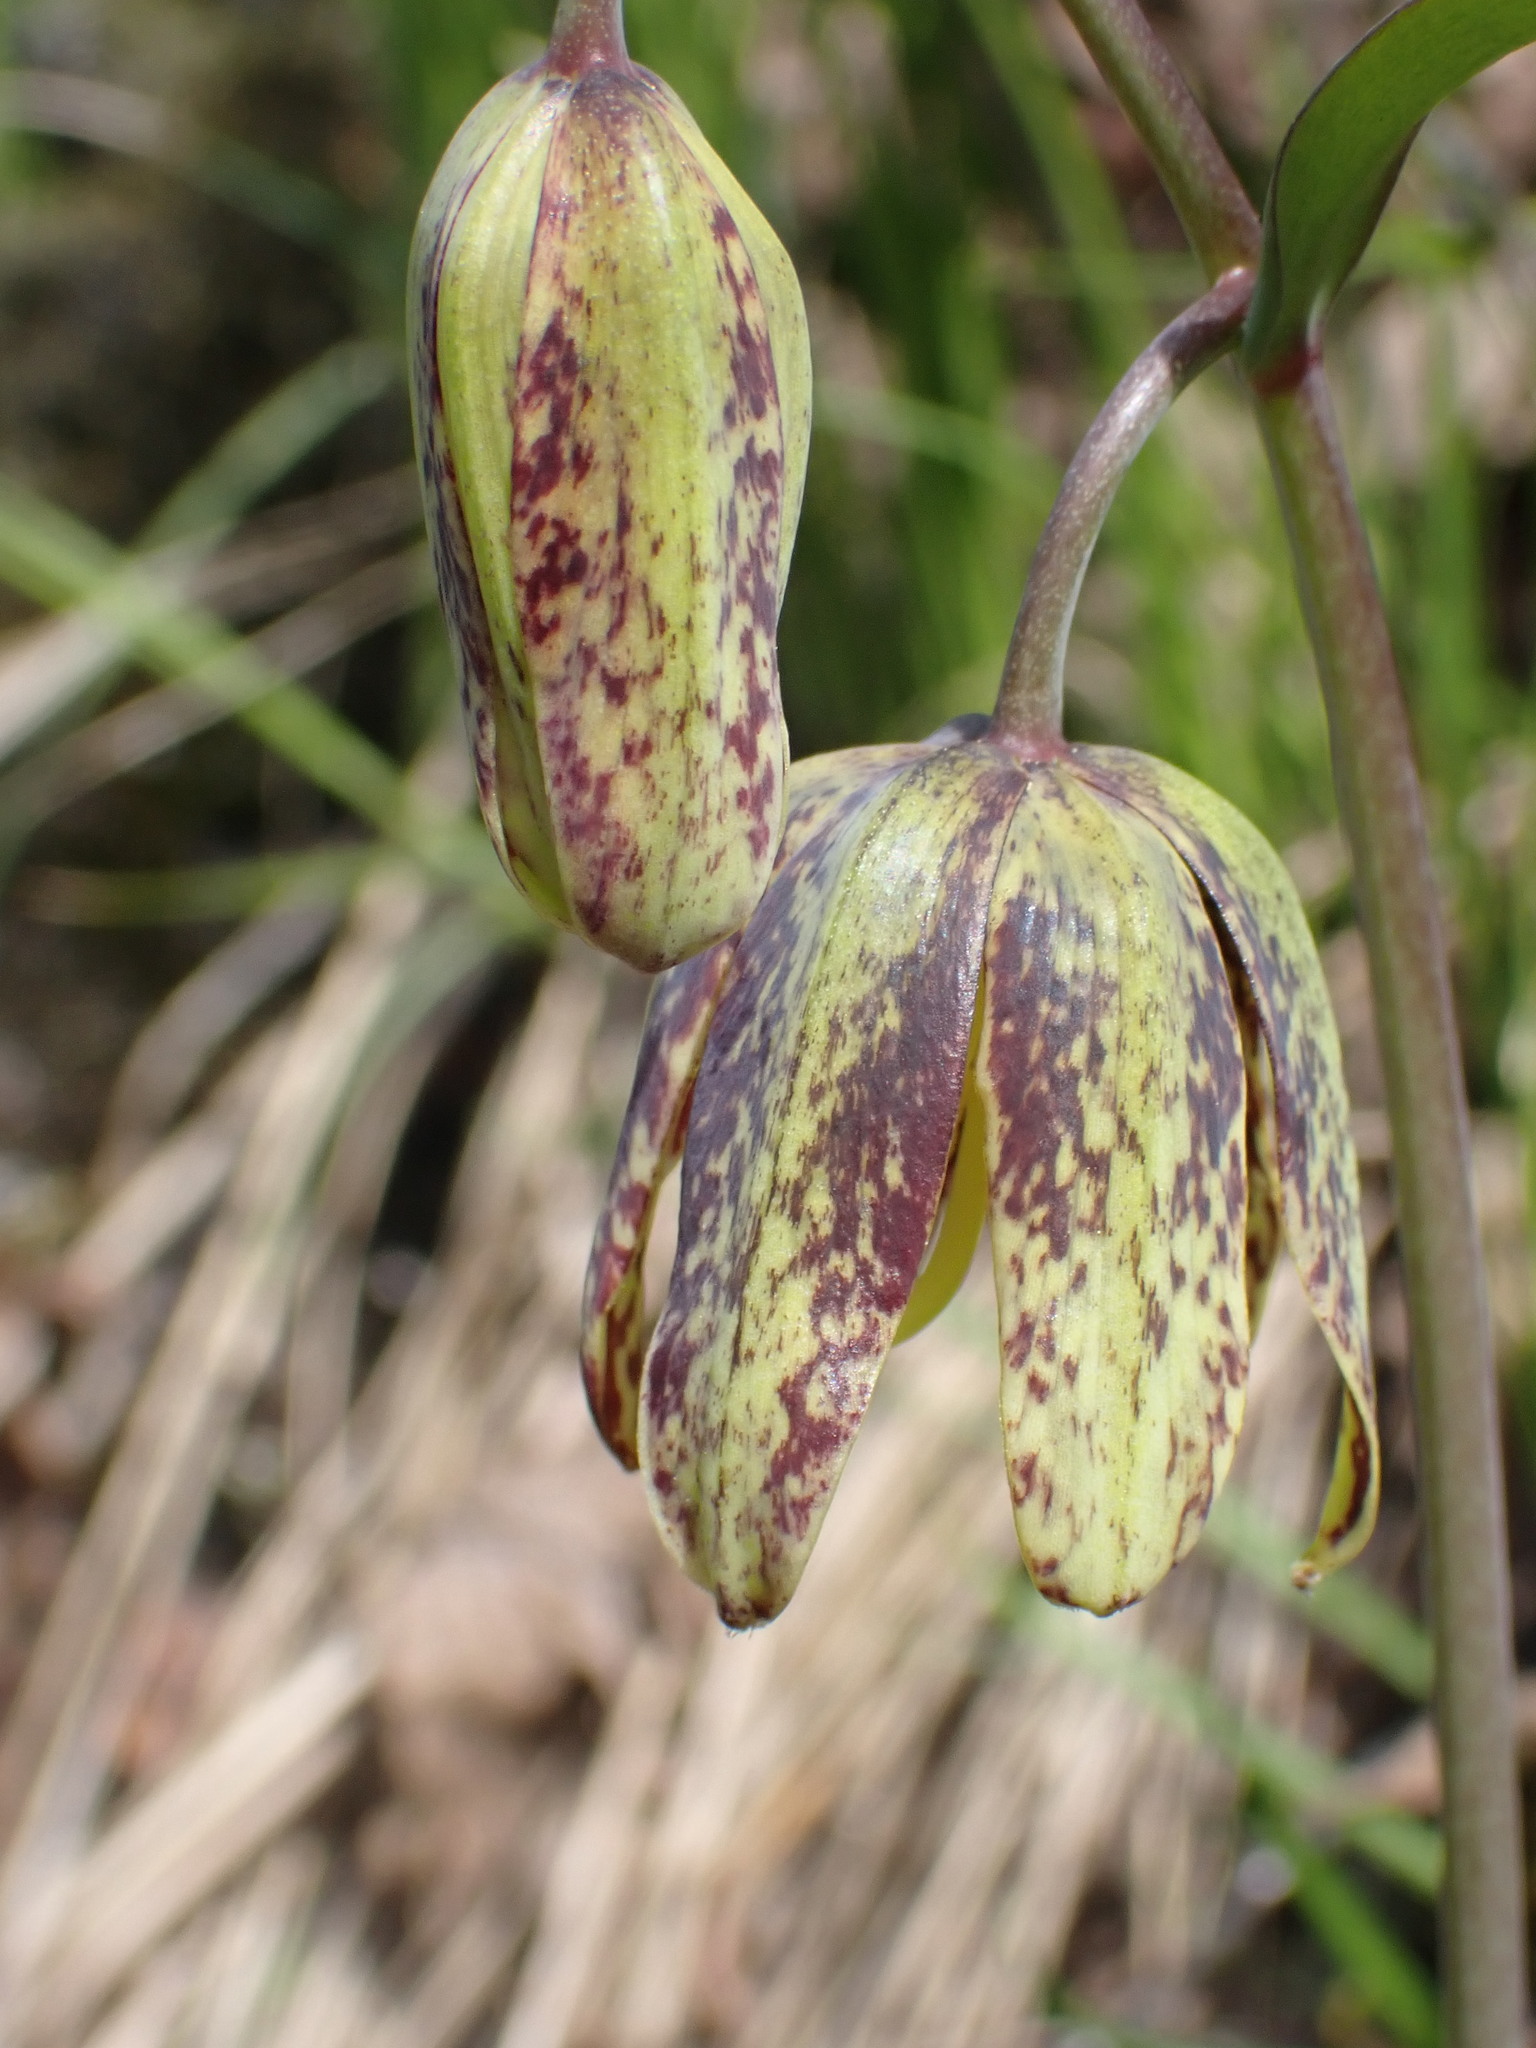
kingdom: Plantae
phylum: Tracheophyta
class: Liliopsida
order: Liliales
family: Liliaceae
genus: Fritillaria
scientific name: Fritillaria affinis
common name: Ojai fritillary
